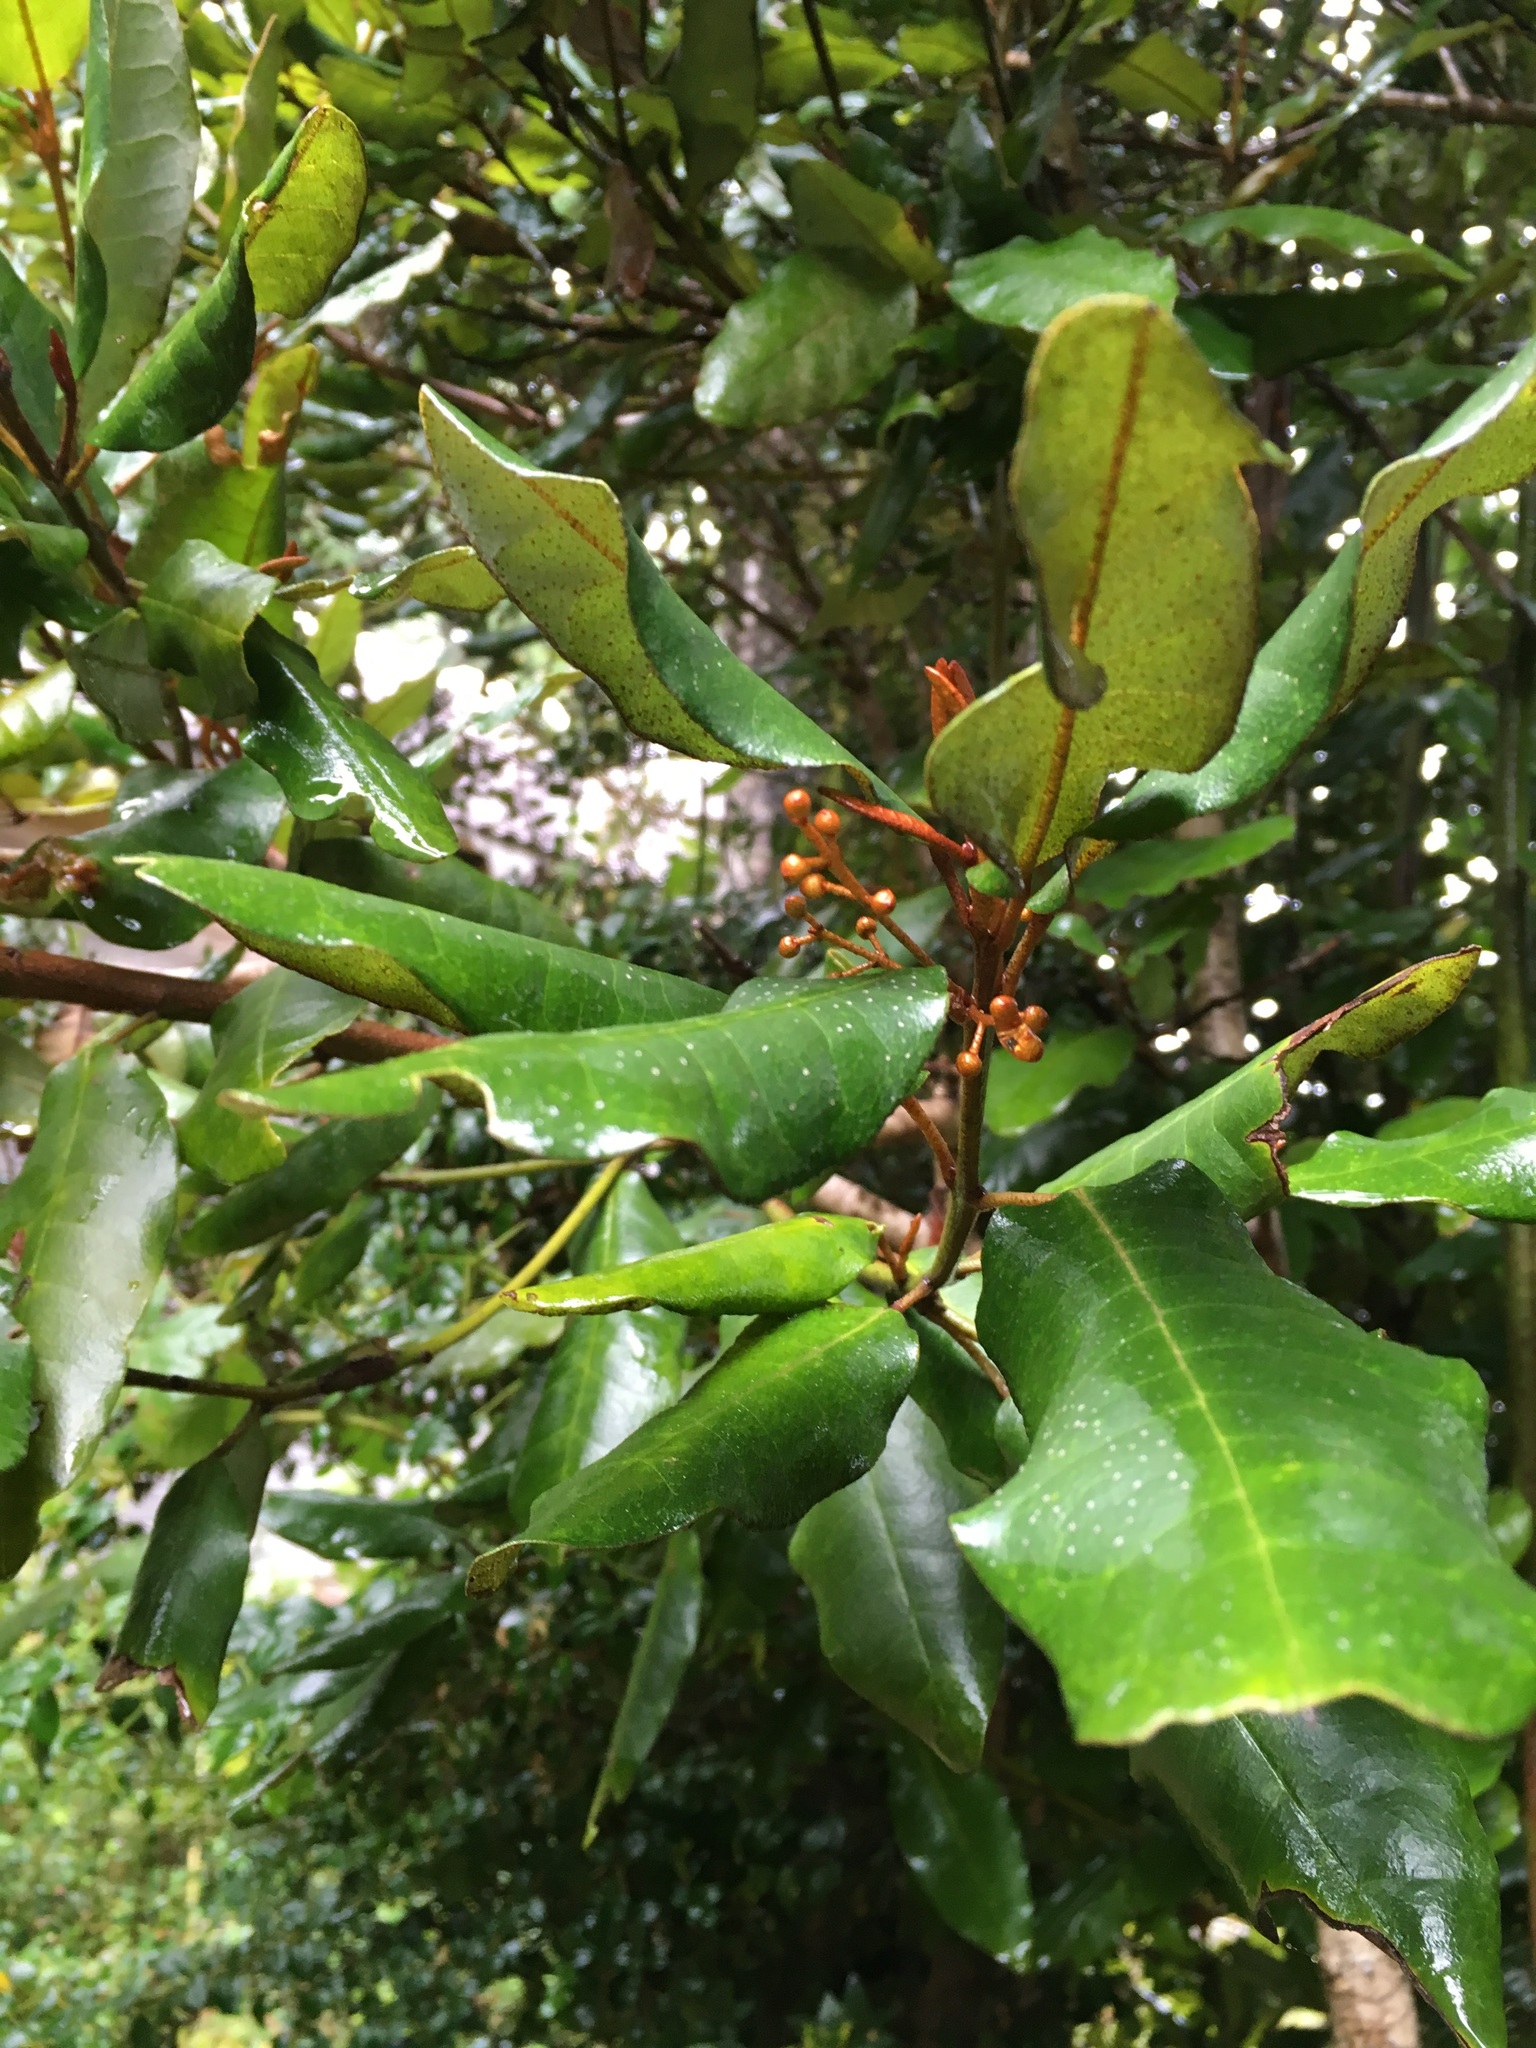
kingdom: Plantae
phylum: Tracheophyta
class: Magnoliopsida
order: Berberidopsidales
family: Aextoxicaceae
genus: Aextoxicon
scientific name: Aextoxicon punctatum
